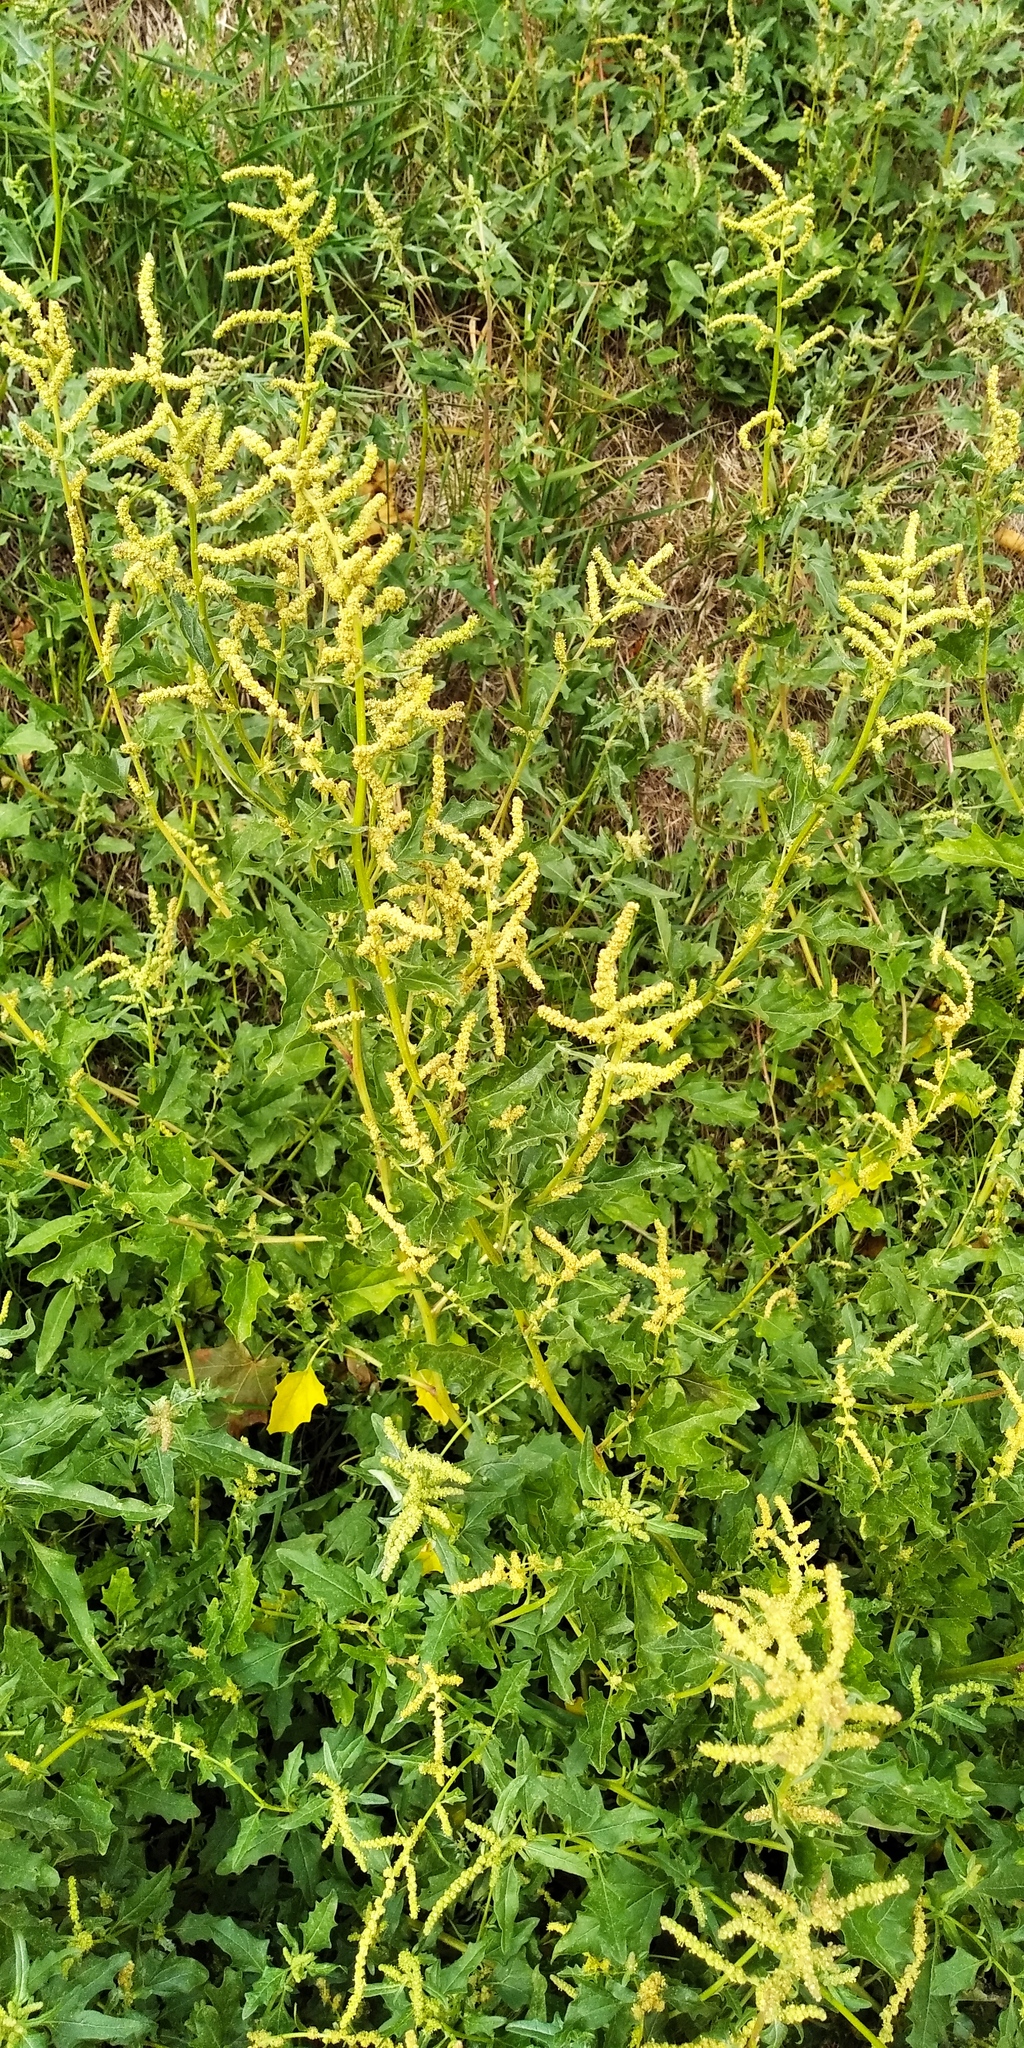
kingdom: Plantae
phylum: Tracheophyta
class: Magnoliopsida
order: Caryophyllales
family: Amaranthaceae
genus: Atriplex
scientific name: Atriplex tatarica
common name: Tatarian orache
